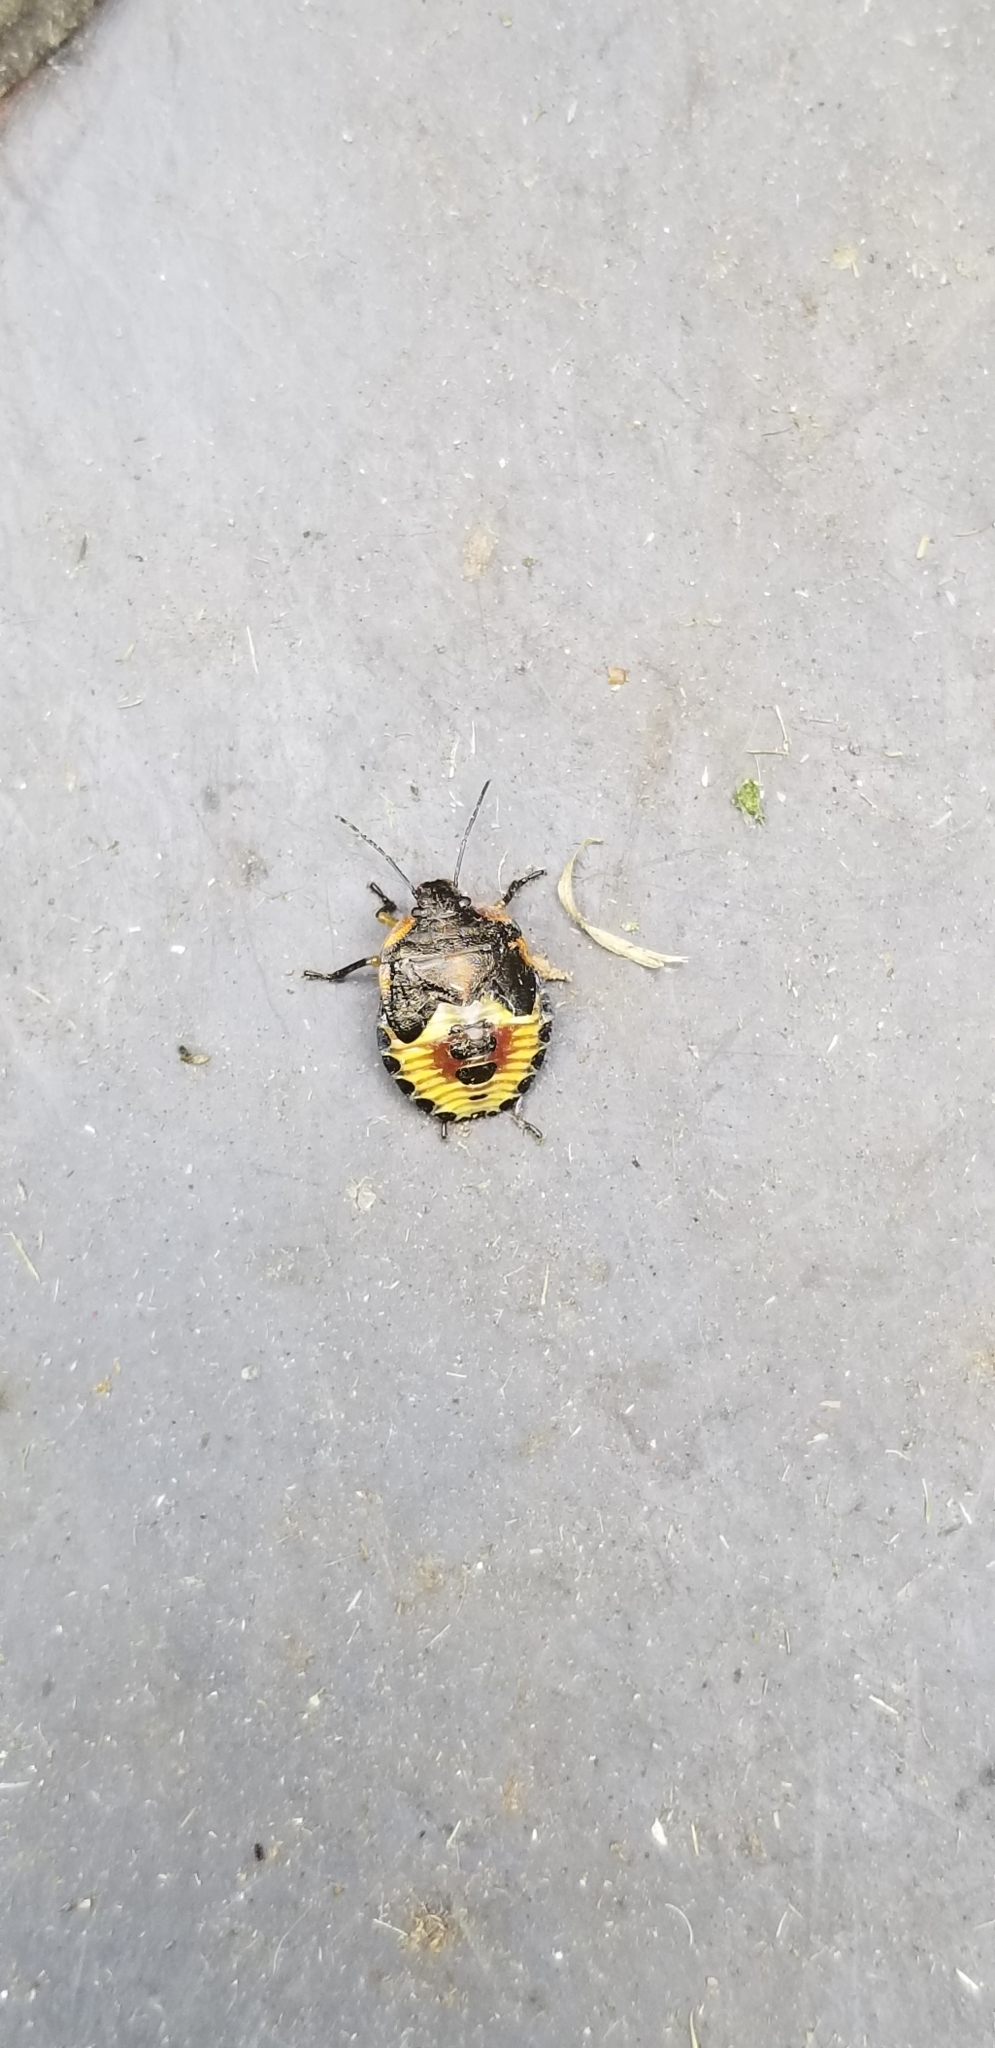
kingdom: Animalia
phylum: Arthropoda
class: Insecta
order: Hemiptera
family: Pentatomidae
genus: Chinavia
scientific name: Chinavia hilaris
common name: Green stink bug
